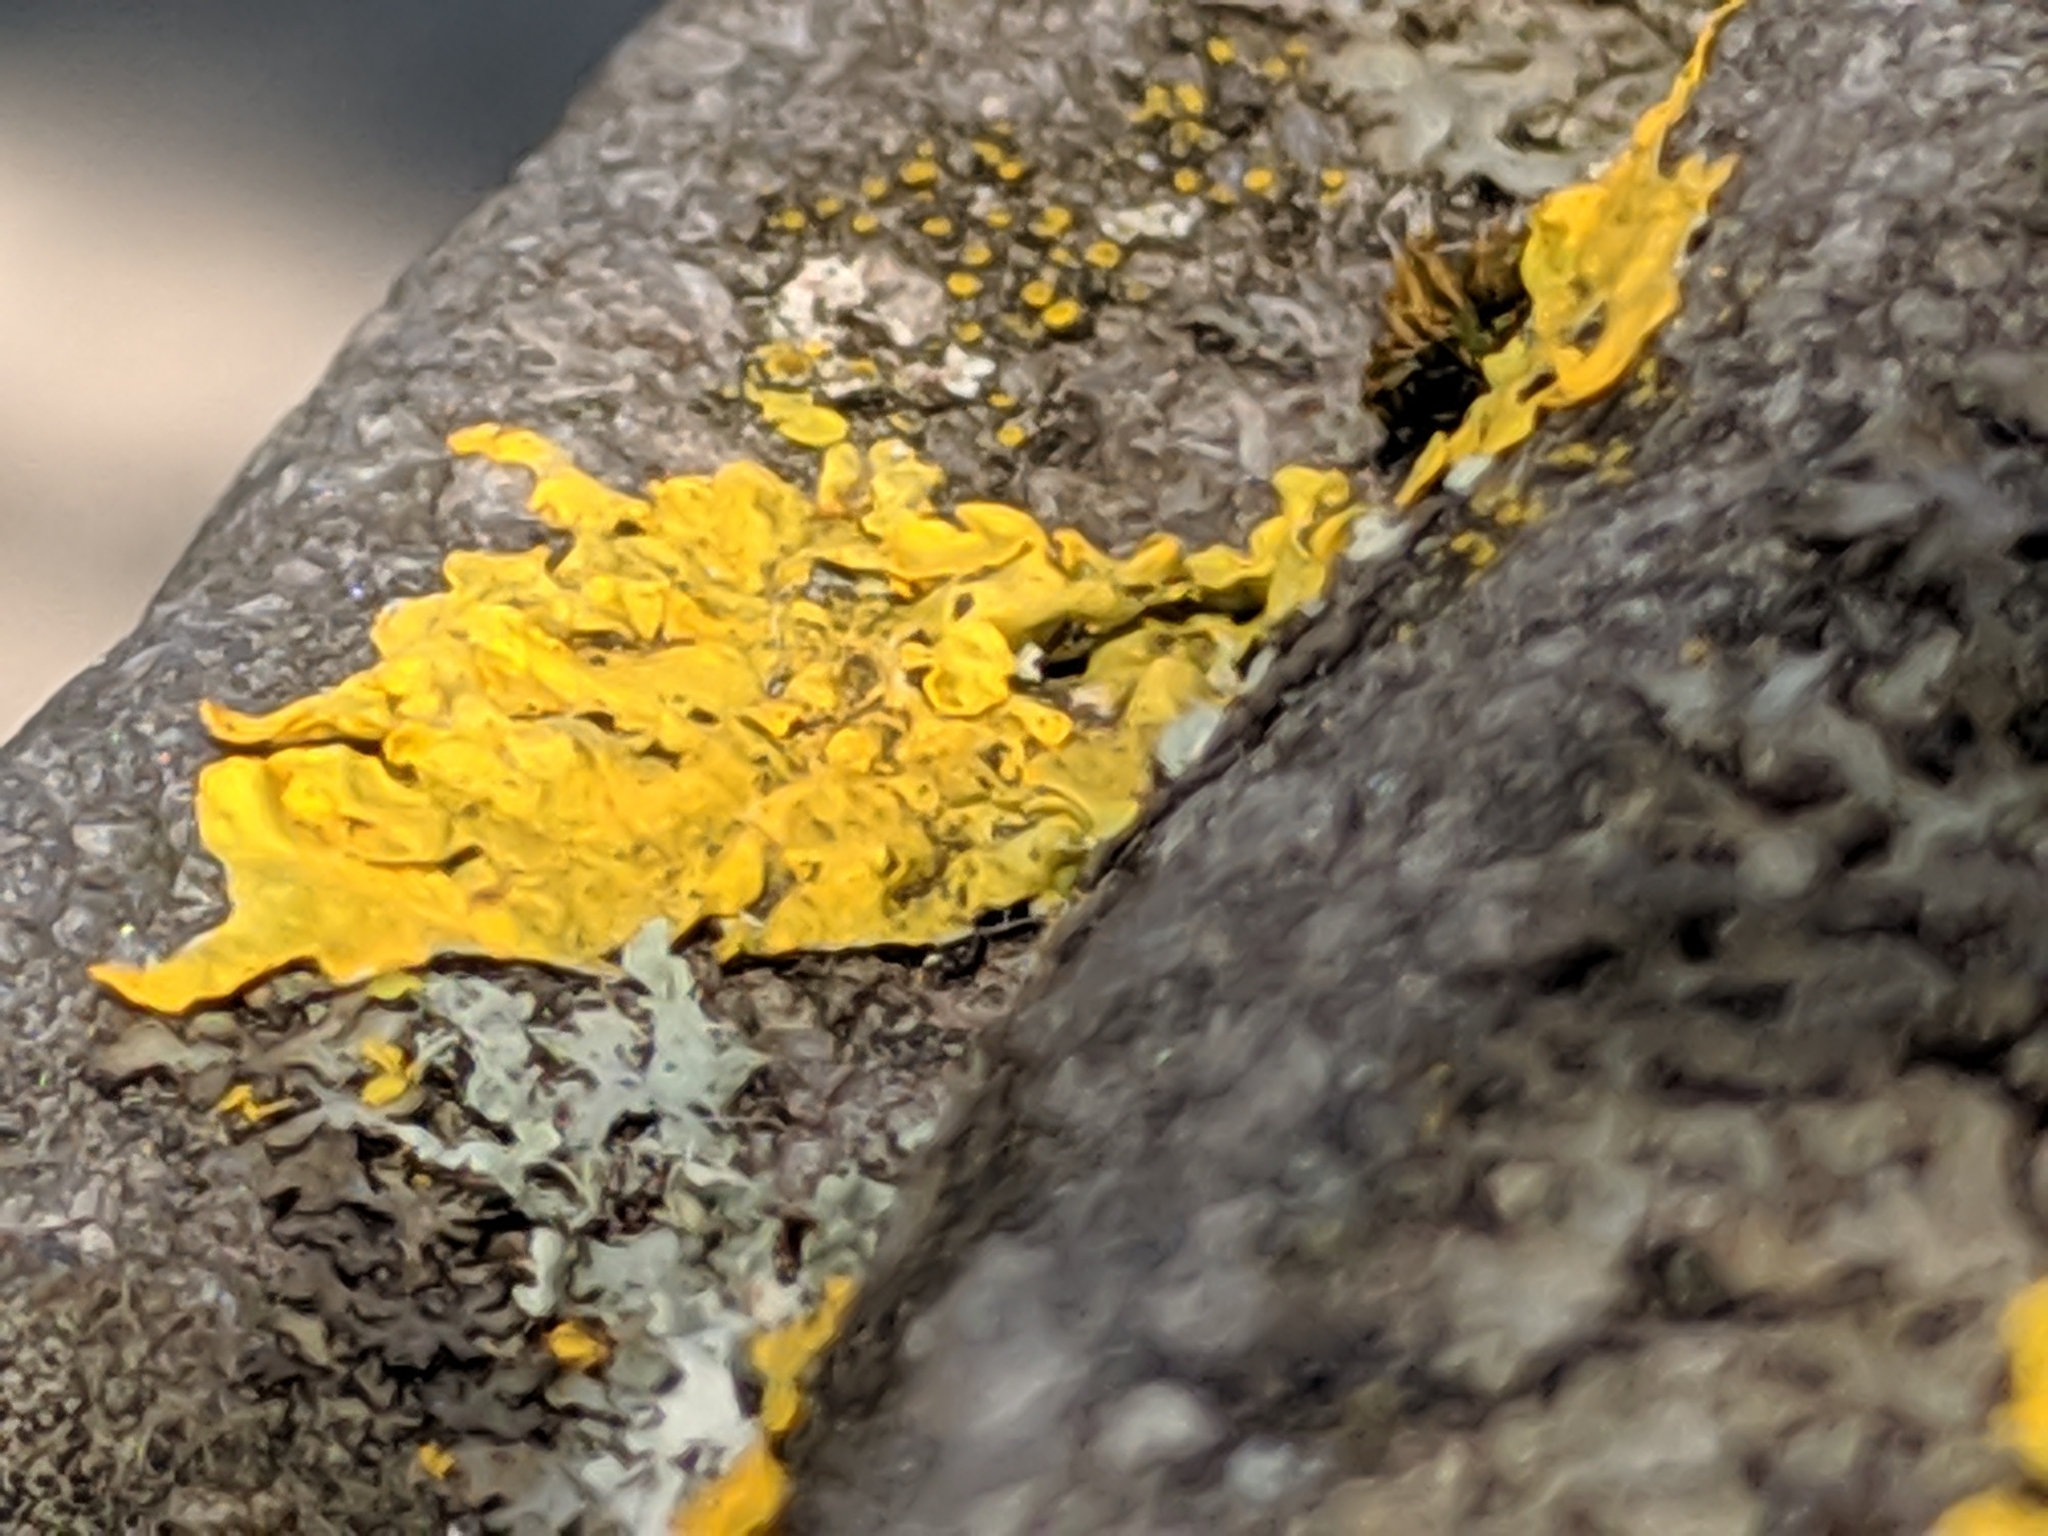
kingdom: Fungi
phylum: Ascomycota
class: Lecanoromycetes
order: Teloschistales
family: Teloschistaceae
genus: Xanthoria
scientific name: Xanthoria parietina
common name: Common orange lichen
